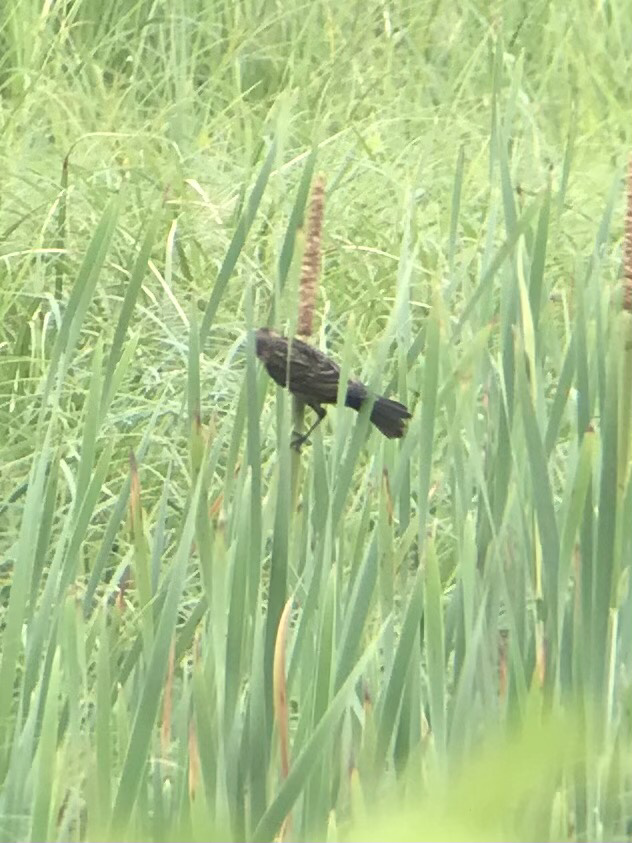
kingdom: Animalia
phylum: Chordata
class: Aves
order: Passeriformes
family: Icteridae
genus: Agelaius
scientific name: Agelaius phoeniceus
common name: Red-winged blackbird
